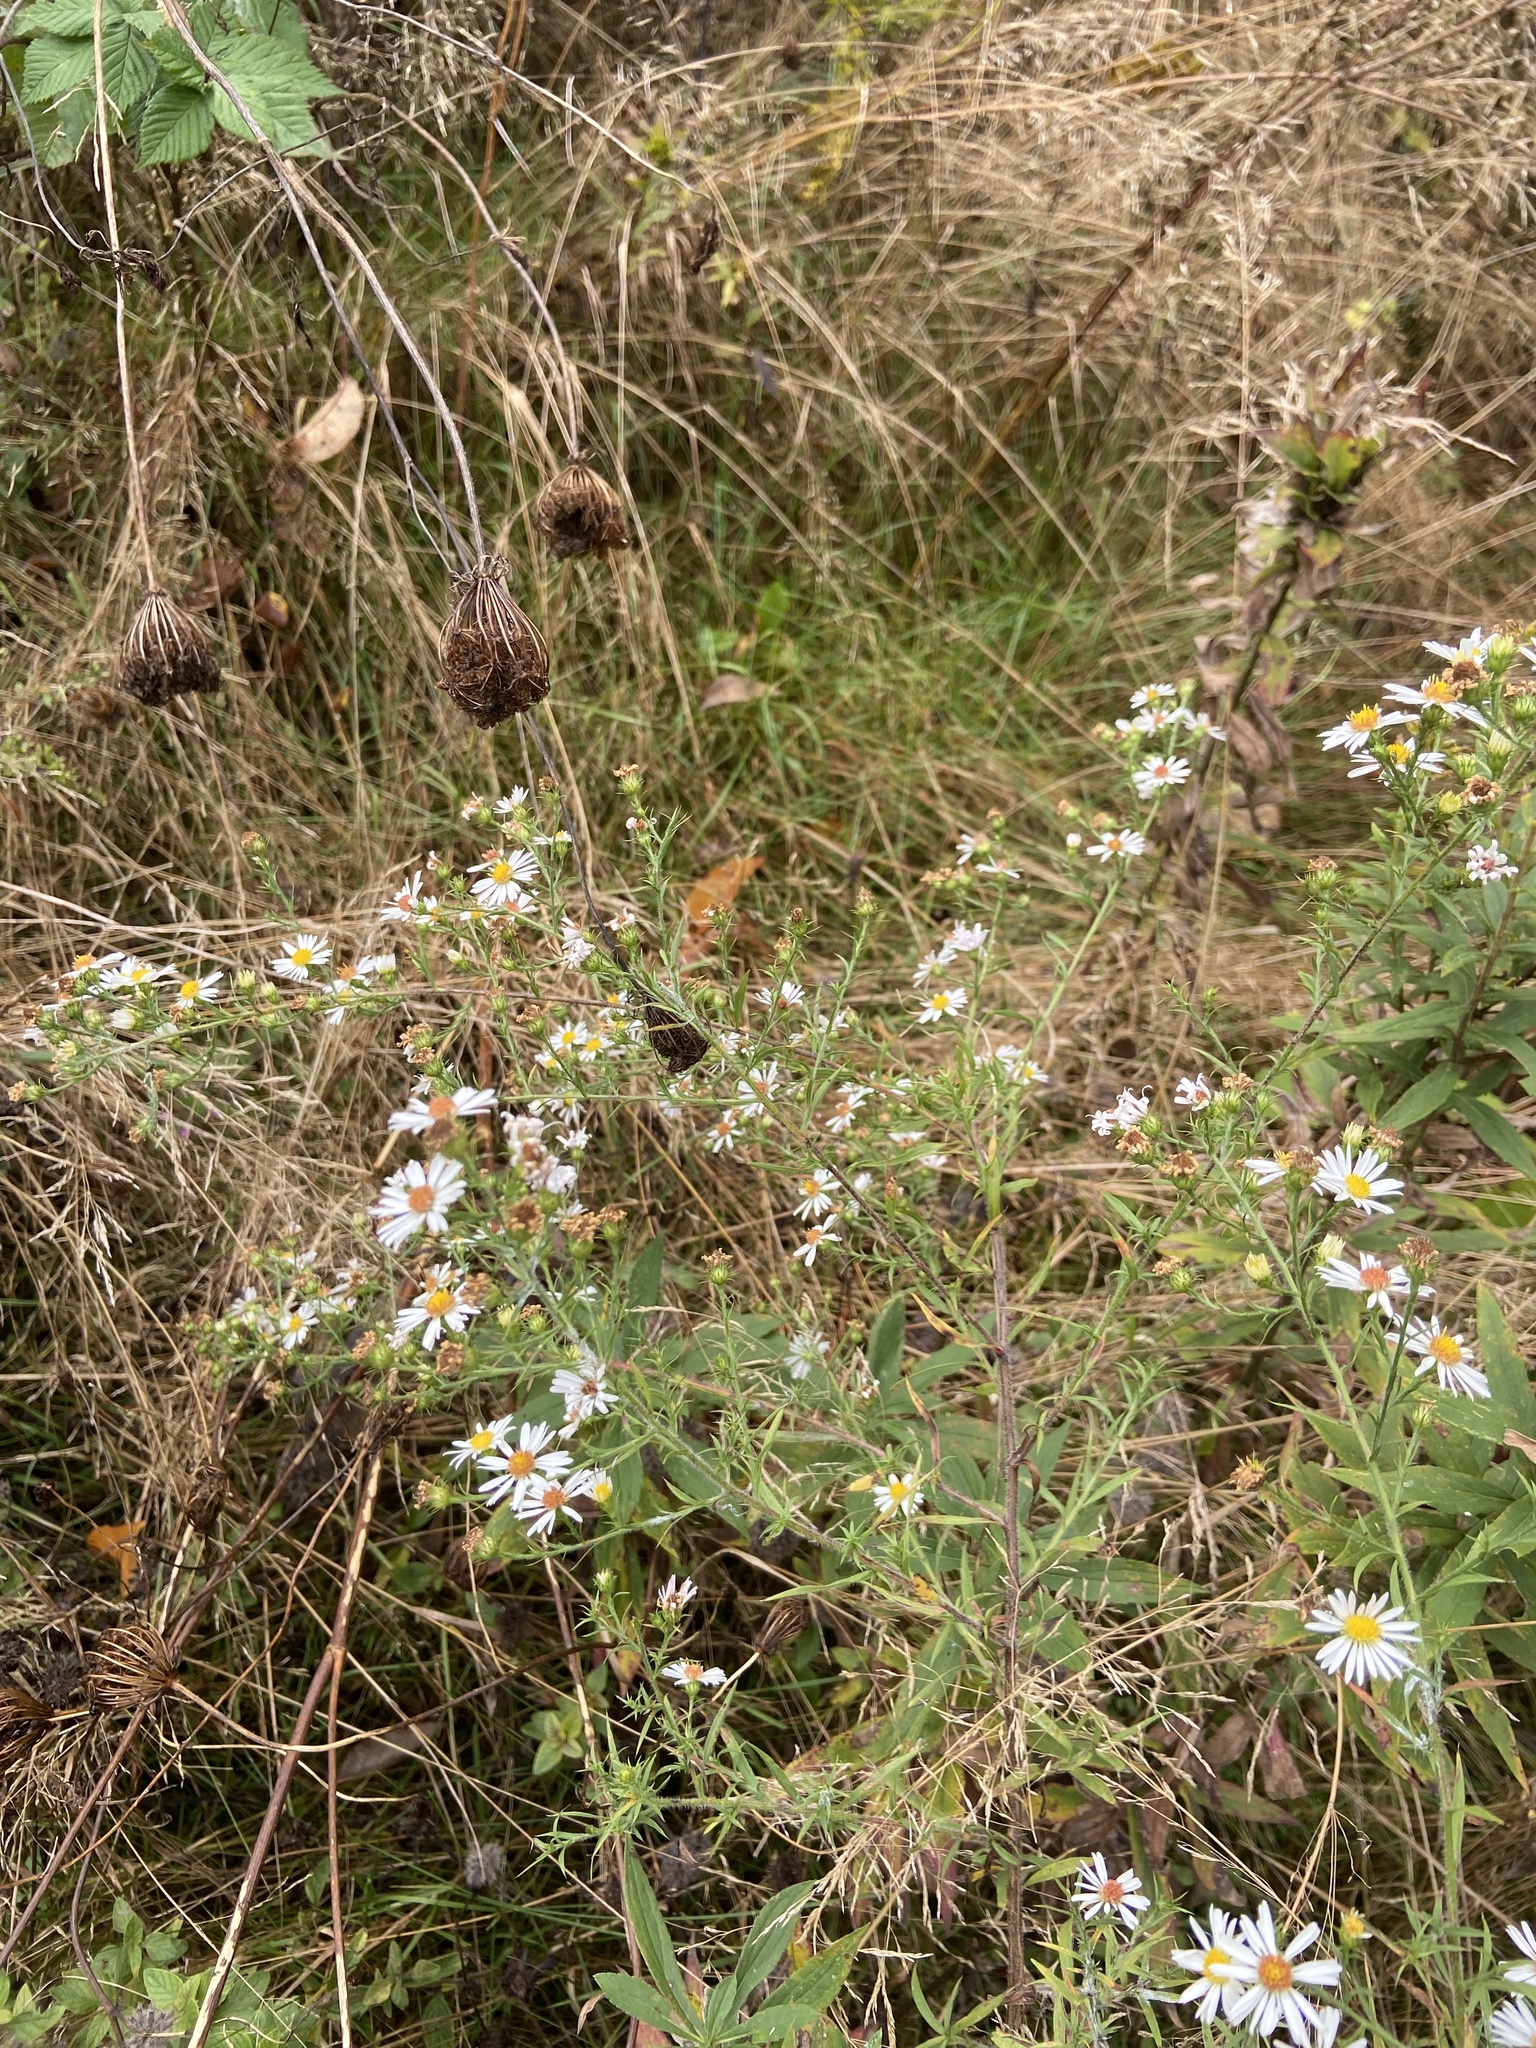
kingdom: Plantae
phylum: Tracheophyta
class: Magnoliopsida
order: Asterales
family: Asteraceae
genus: Symphyotrichum
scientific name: Symphyotrichum pilosum
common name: Awl aster
